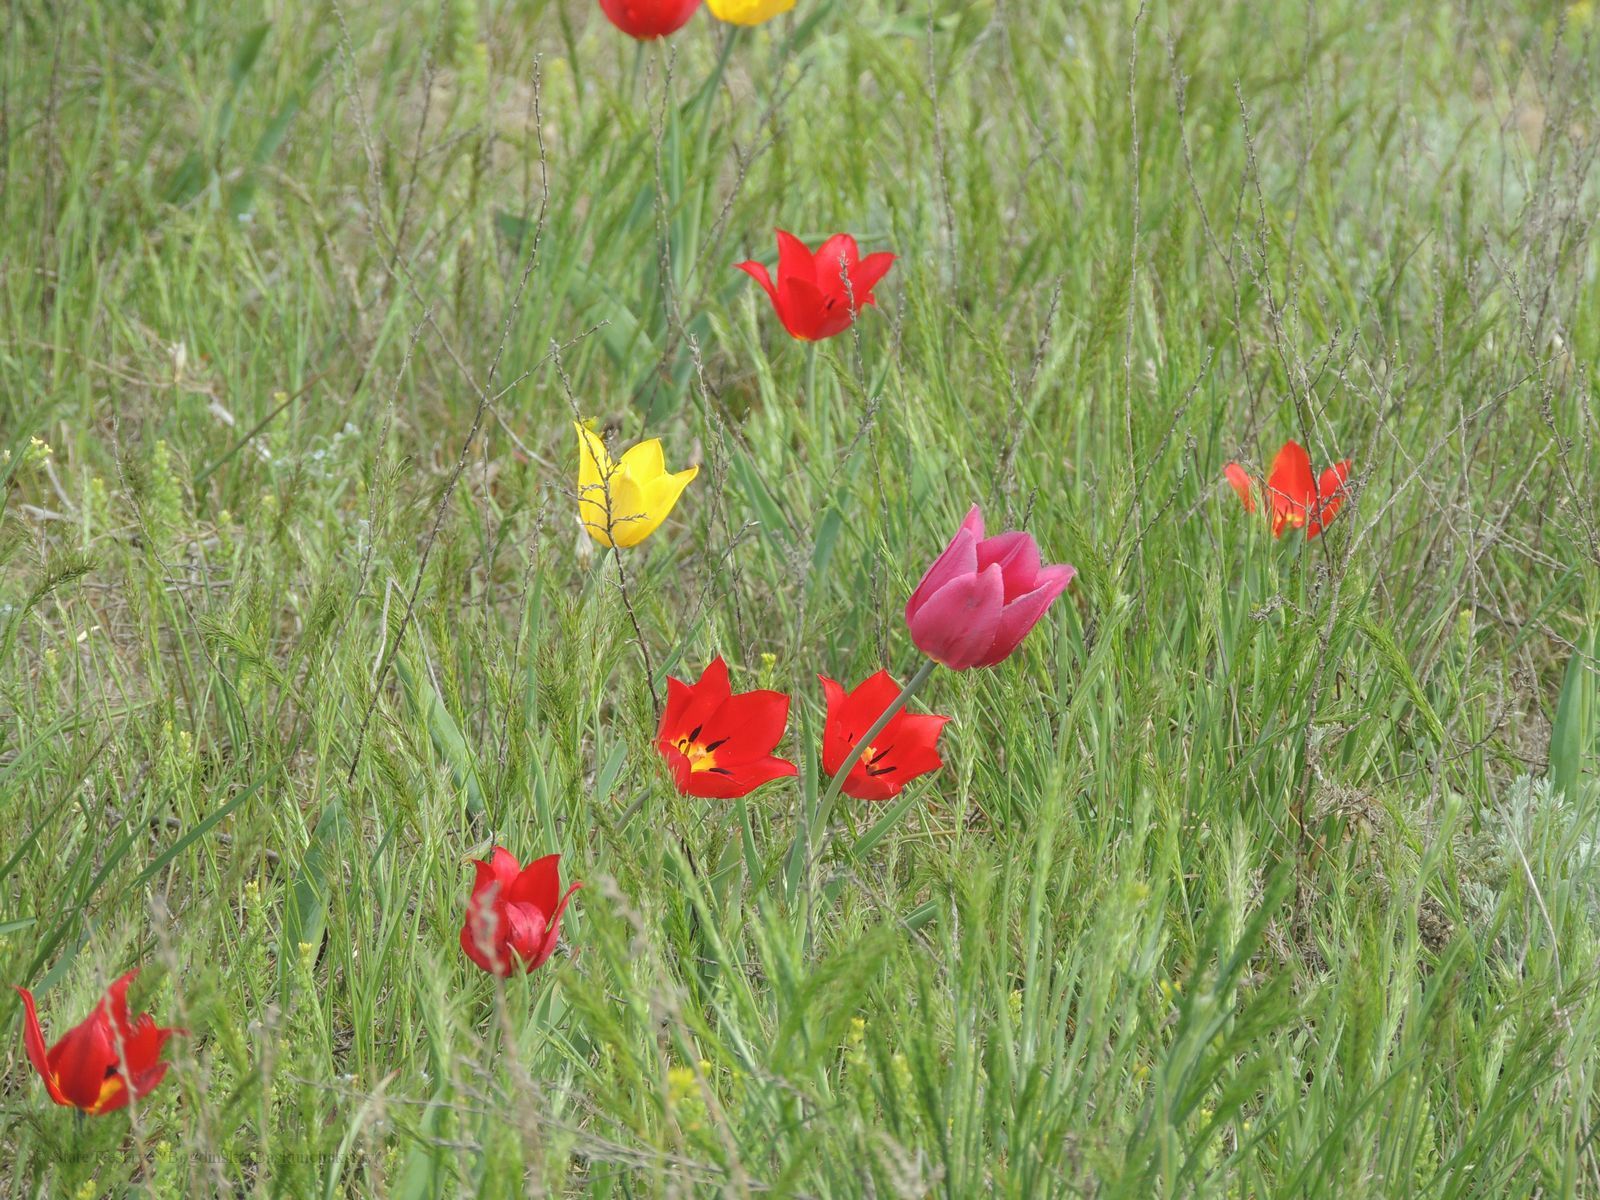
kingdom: Plantae
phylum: Tracheophyta
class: Liliopsida
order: Liliales
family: Liliaceae
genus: Tulipa
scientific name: Tulipa suaveolens
